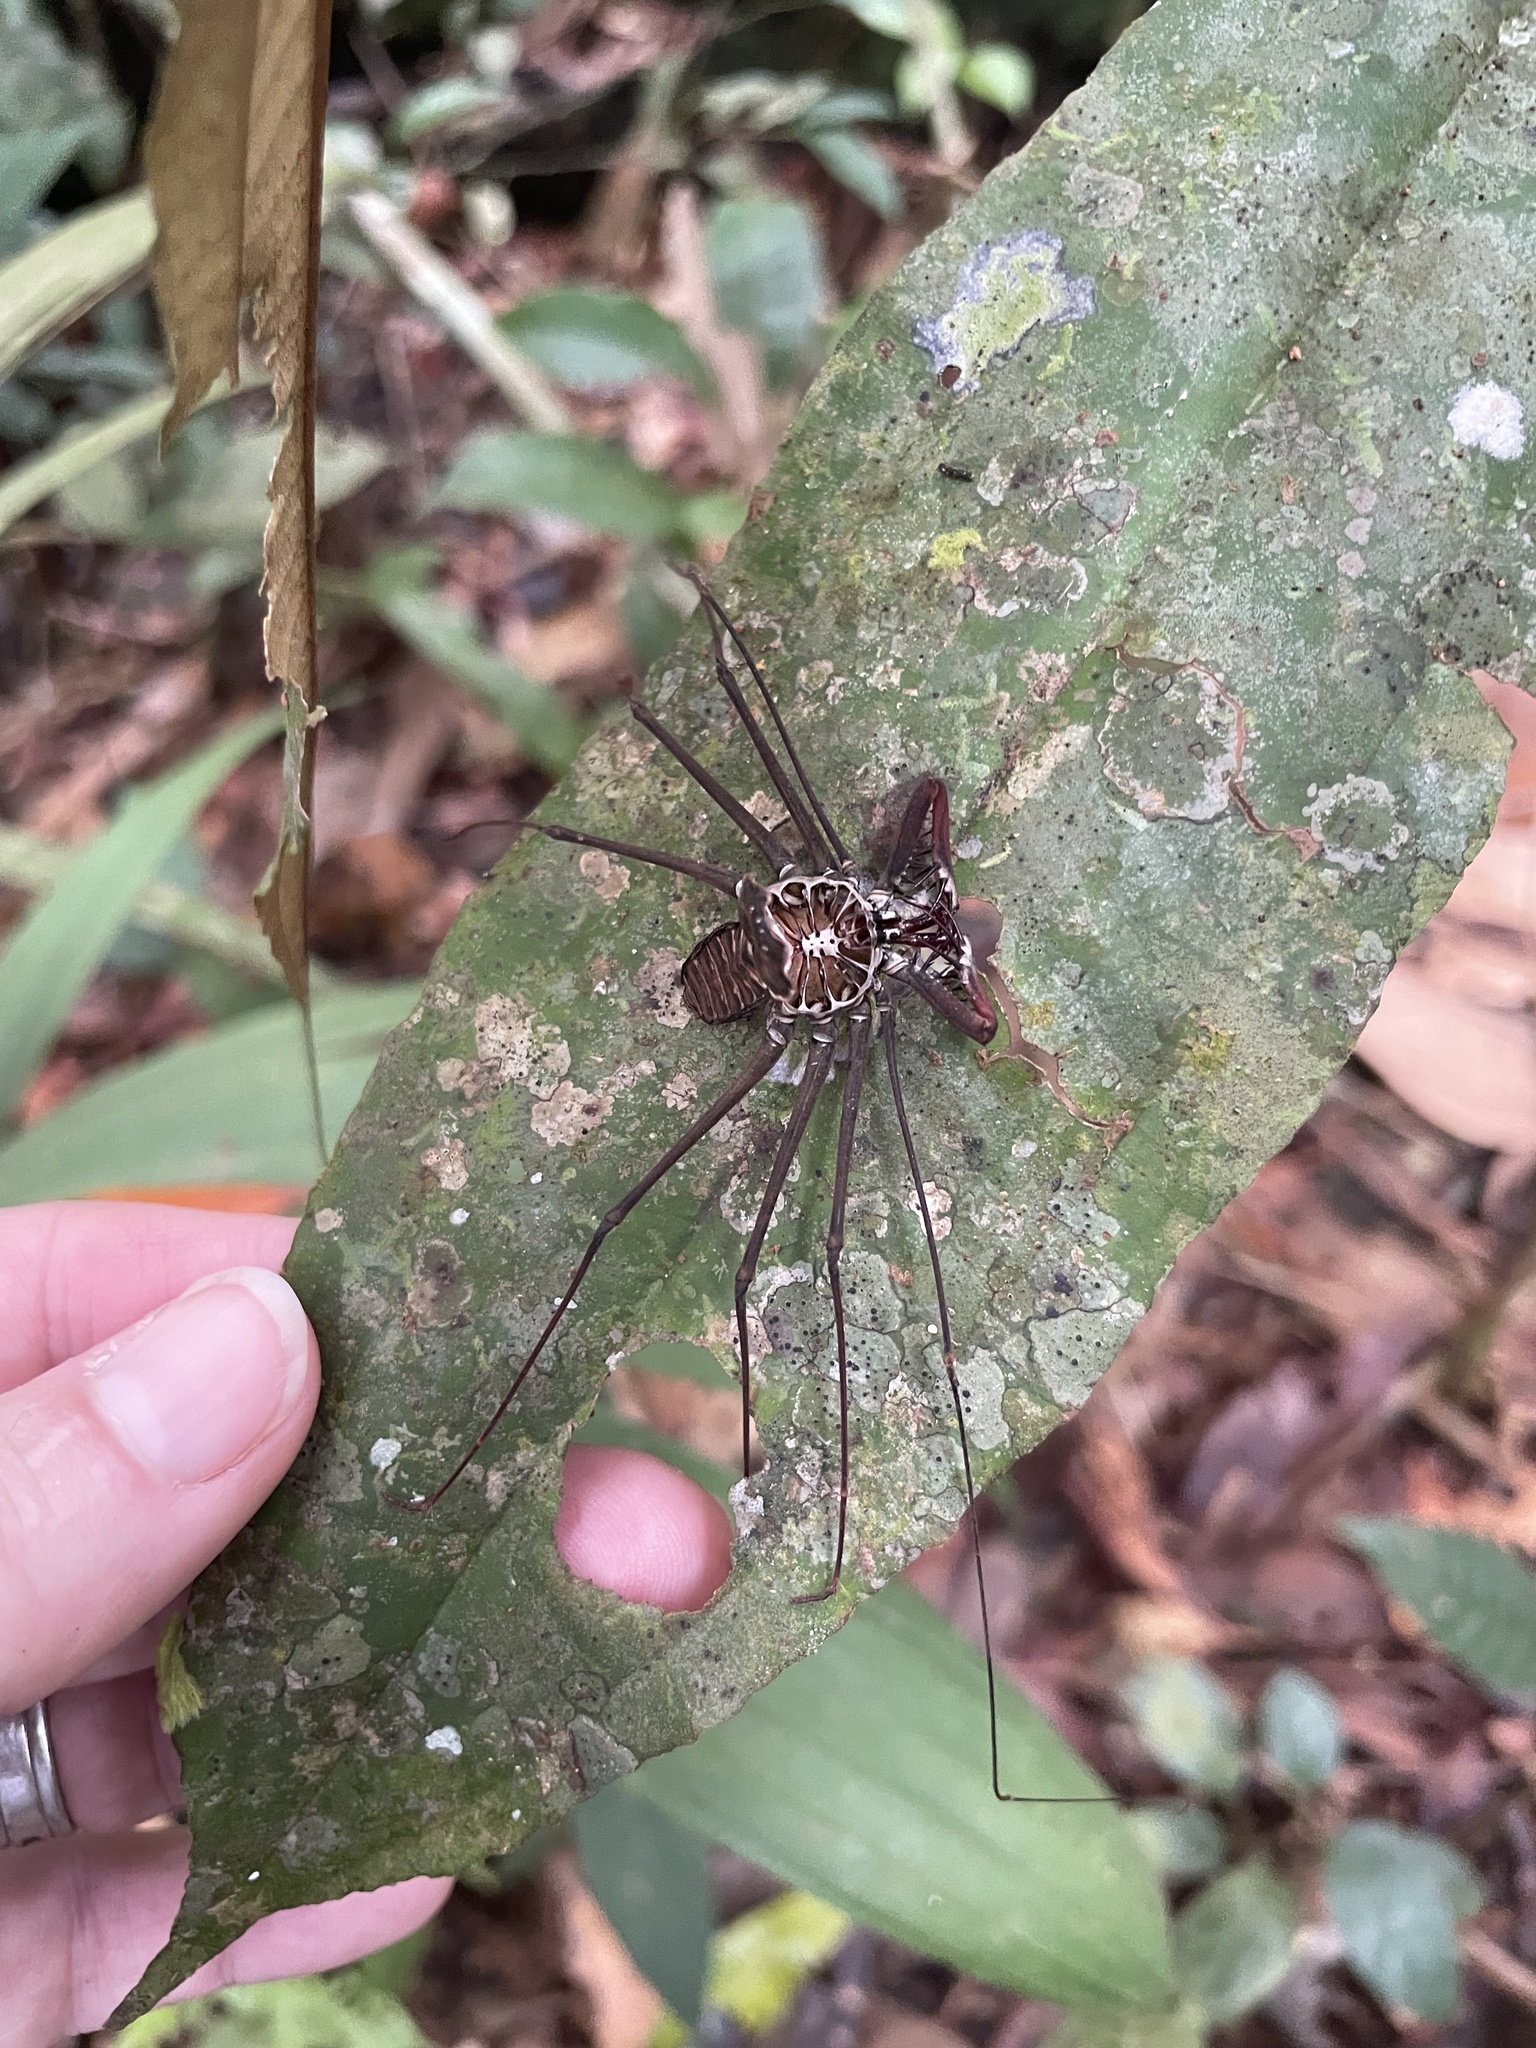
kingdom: Animalia
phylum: Arthropoda
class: Arachnida
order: Amblypygi
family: Phrynidae
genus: Heterophrynus
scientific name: Heterophrynus longicornis
